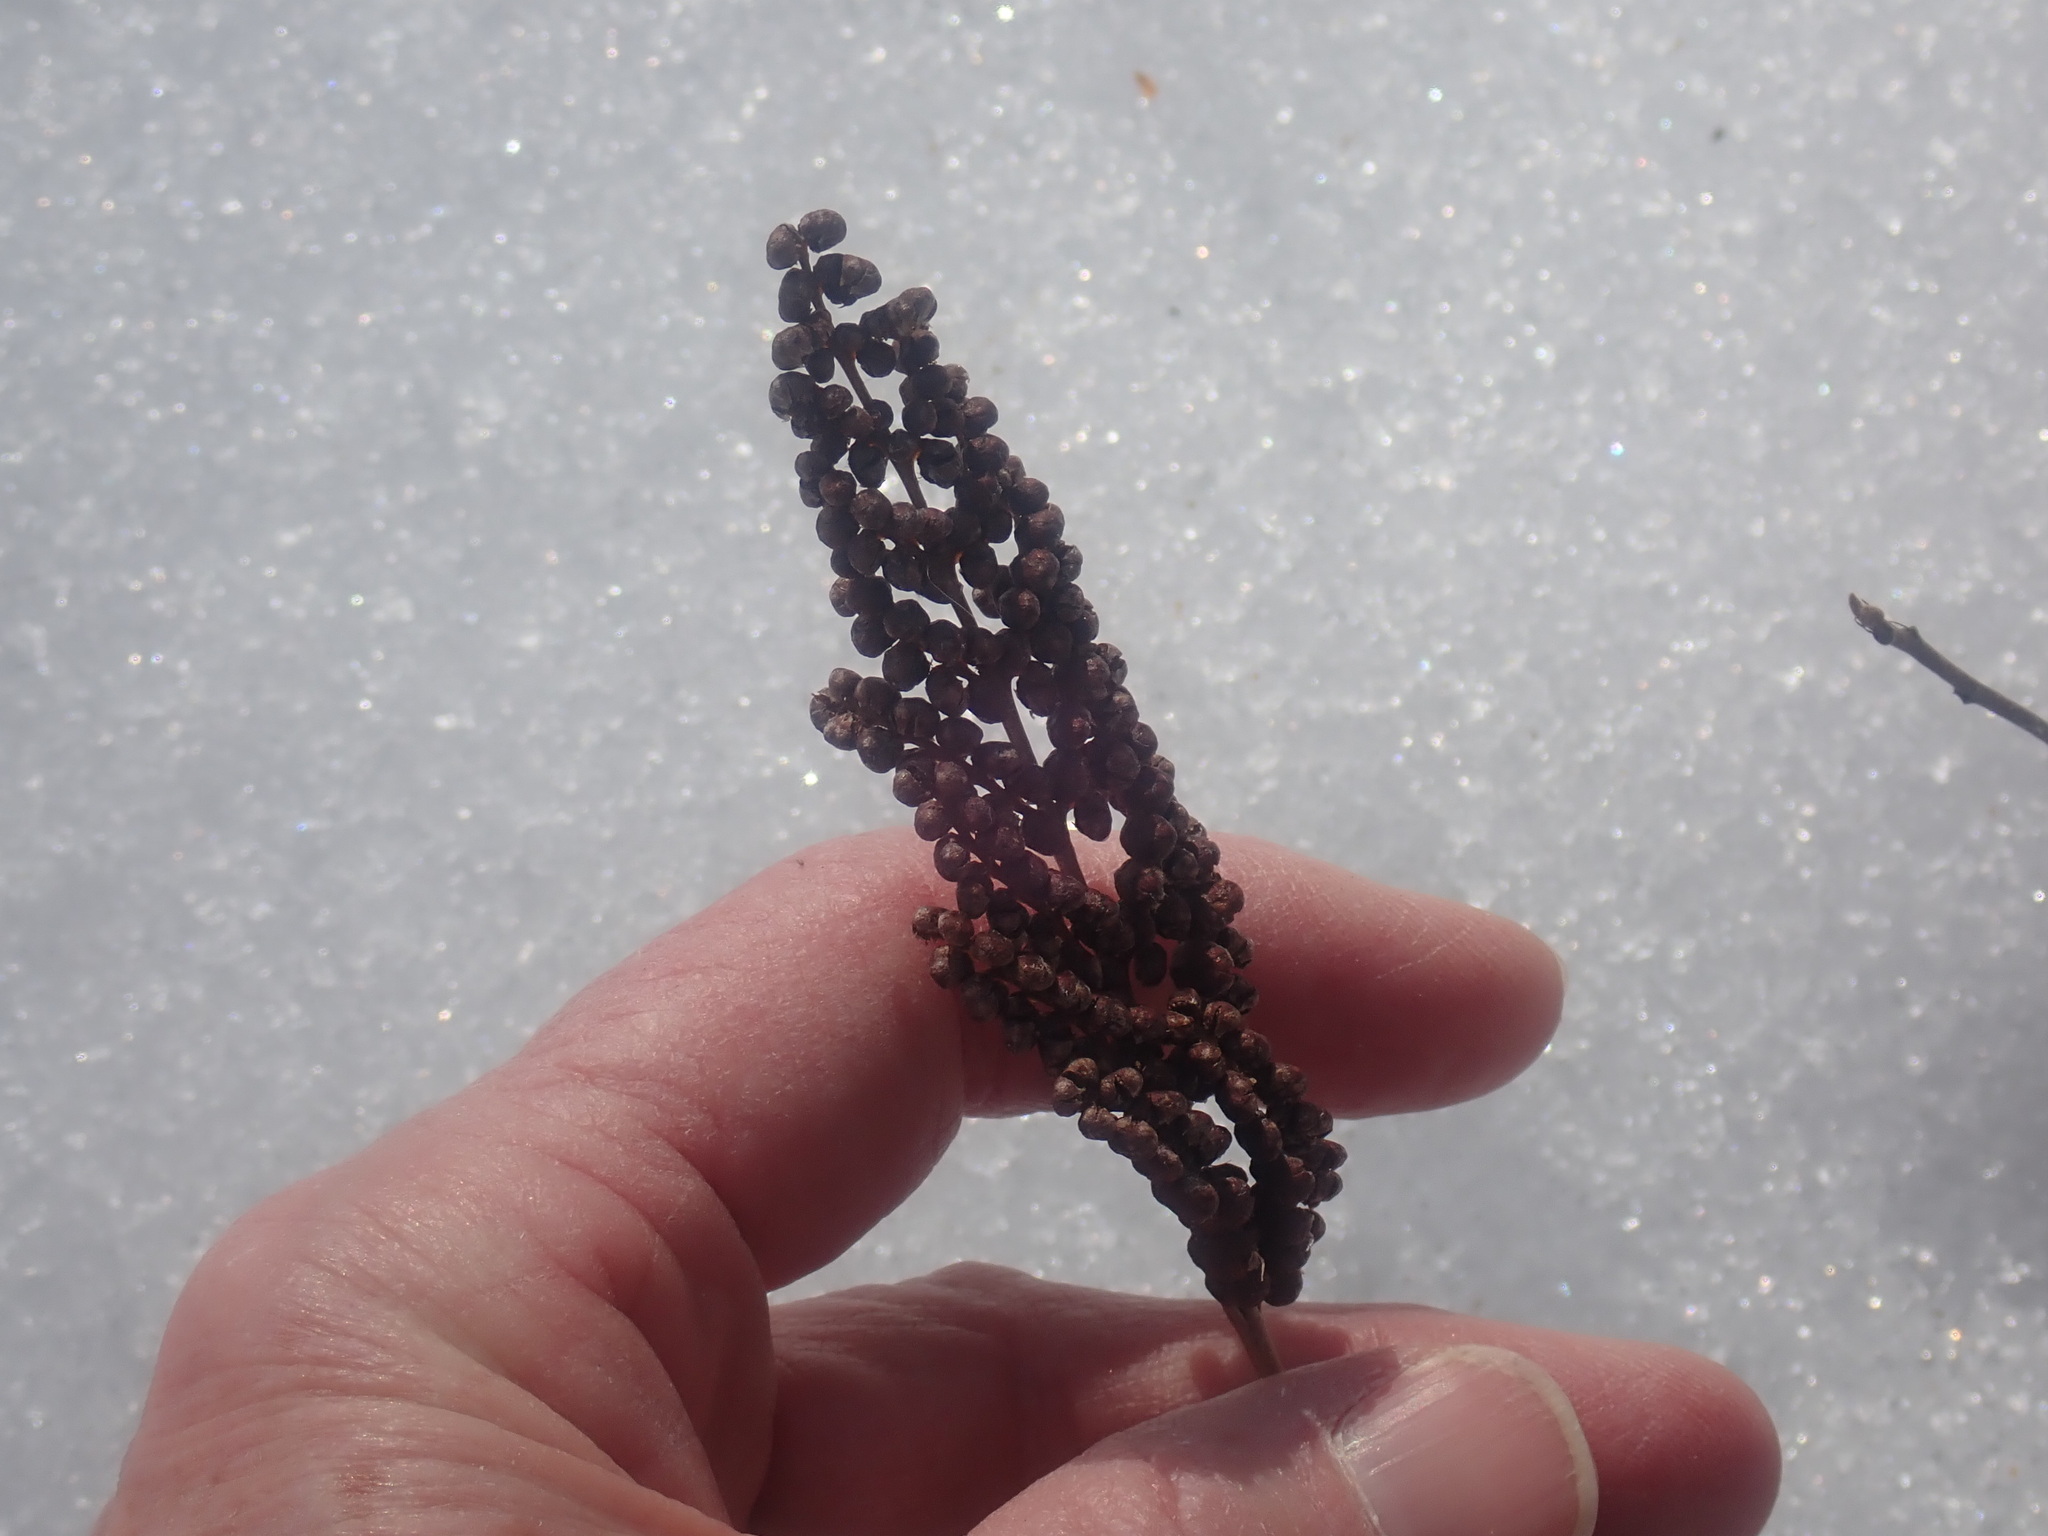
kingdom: Plantae
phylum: Tracheophyta
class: Polypodiopsida
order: Polypodiales
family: Onocleaceae
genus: Onoclea
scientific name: Onoclea sensibilis
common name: Sensitive fern
